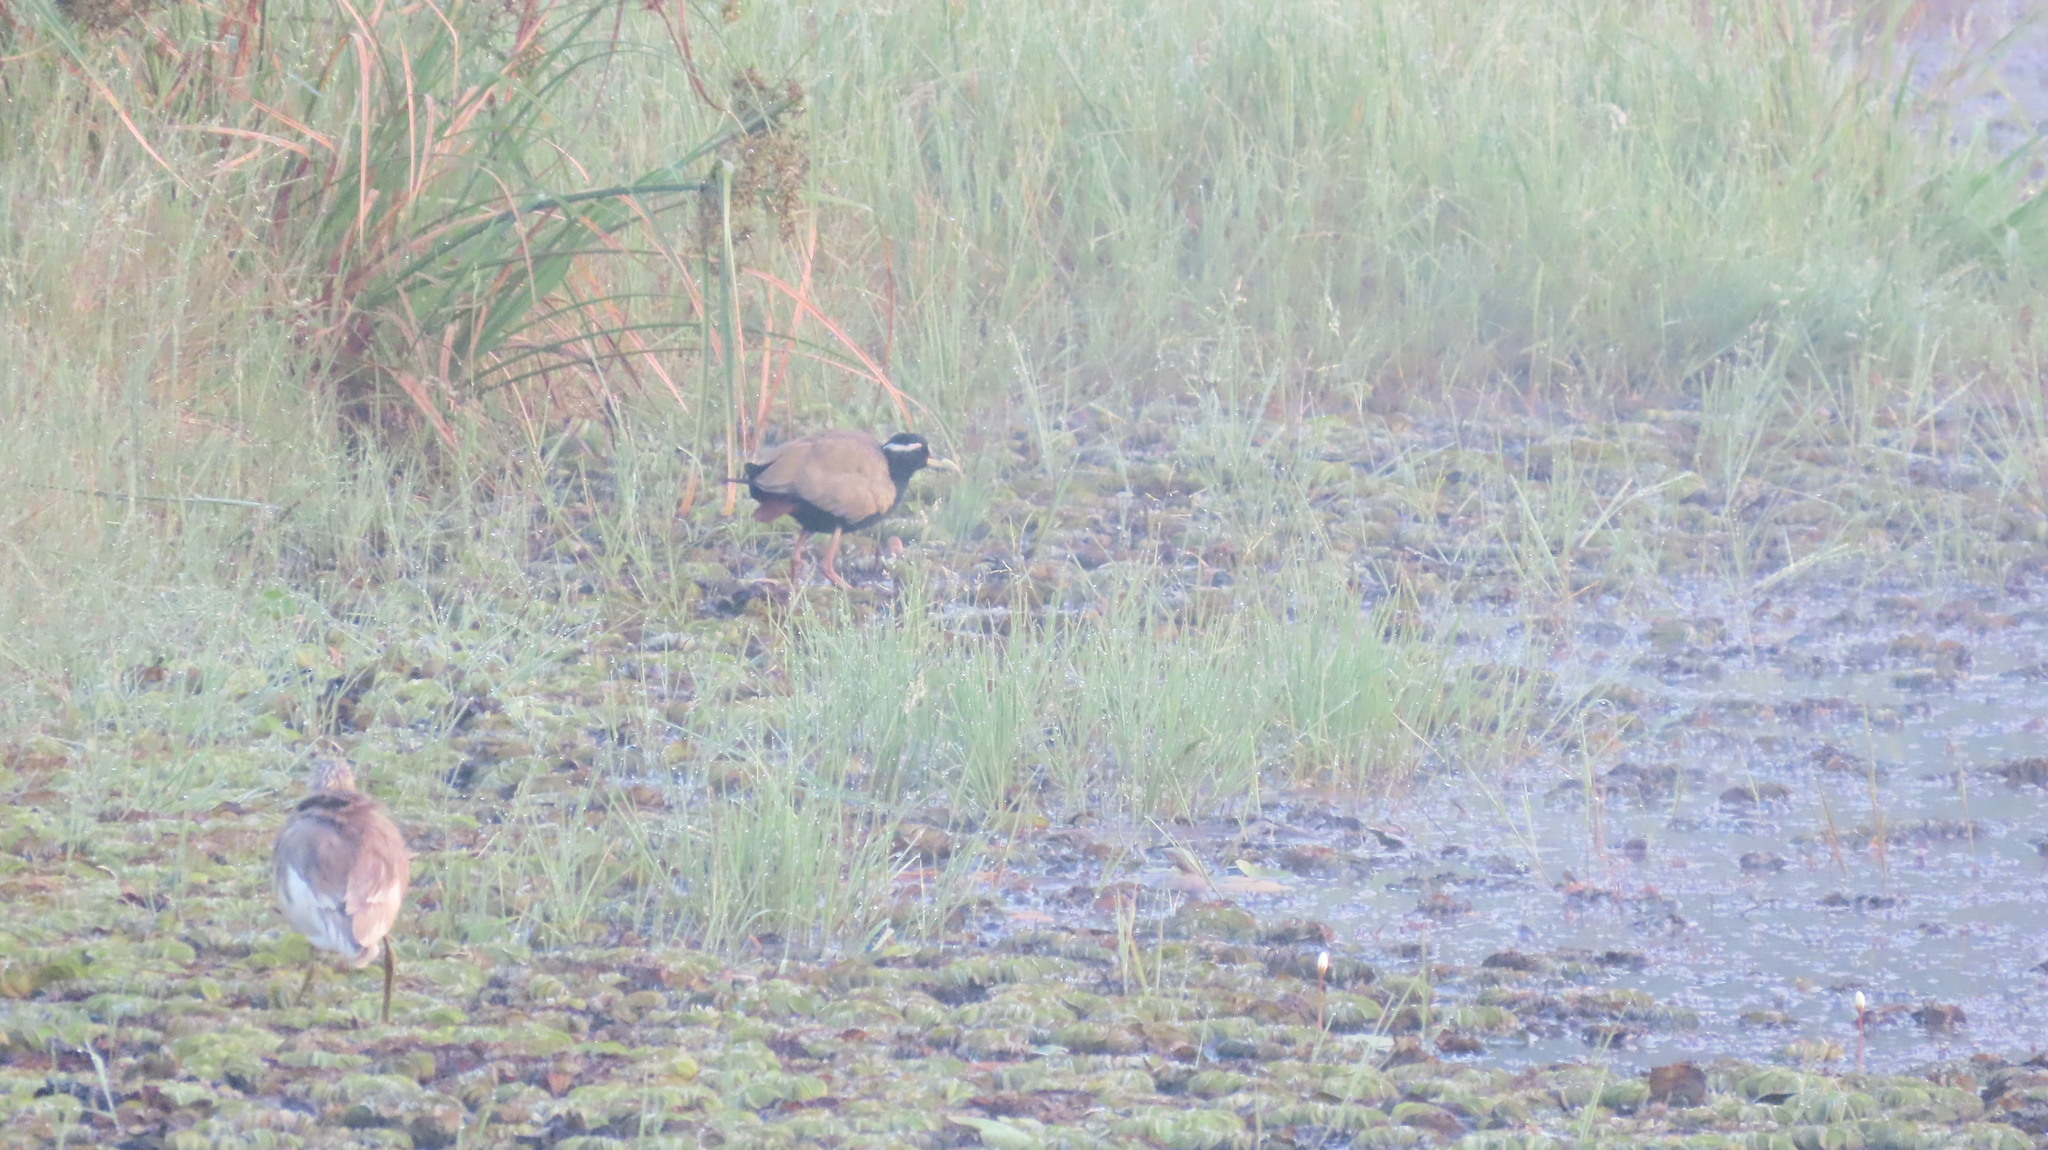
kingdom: Animalia
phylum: Chordata
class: Aves
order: Charadriiformes
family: Jacanidae
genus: Metopidius
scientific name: Metopidius indicus
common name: Bronze-winged jacana
